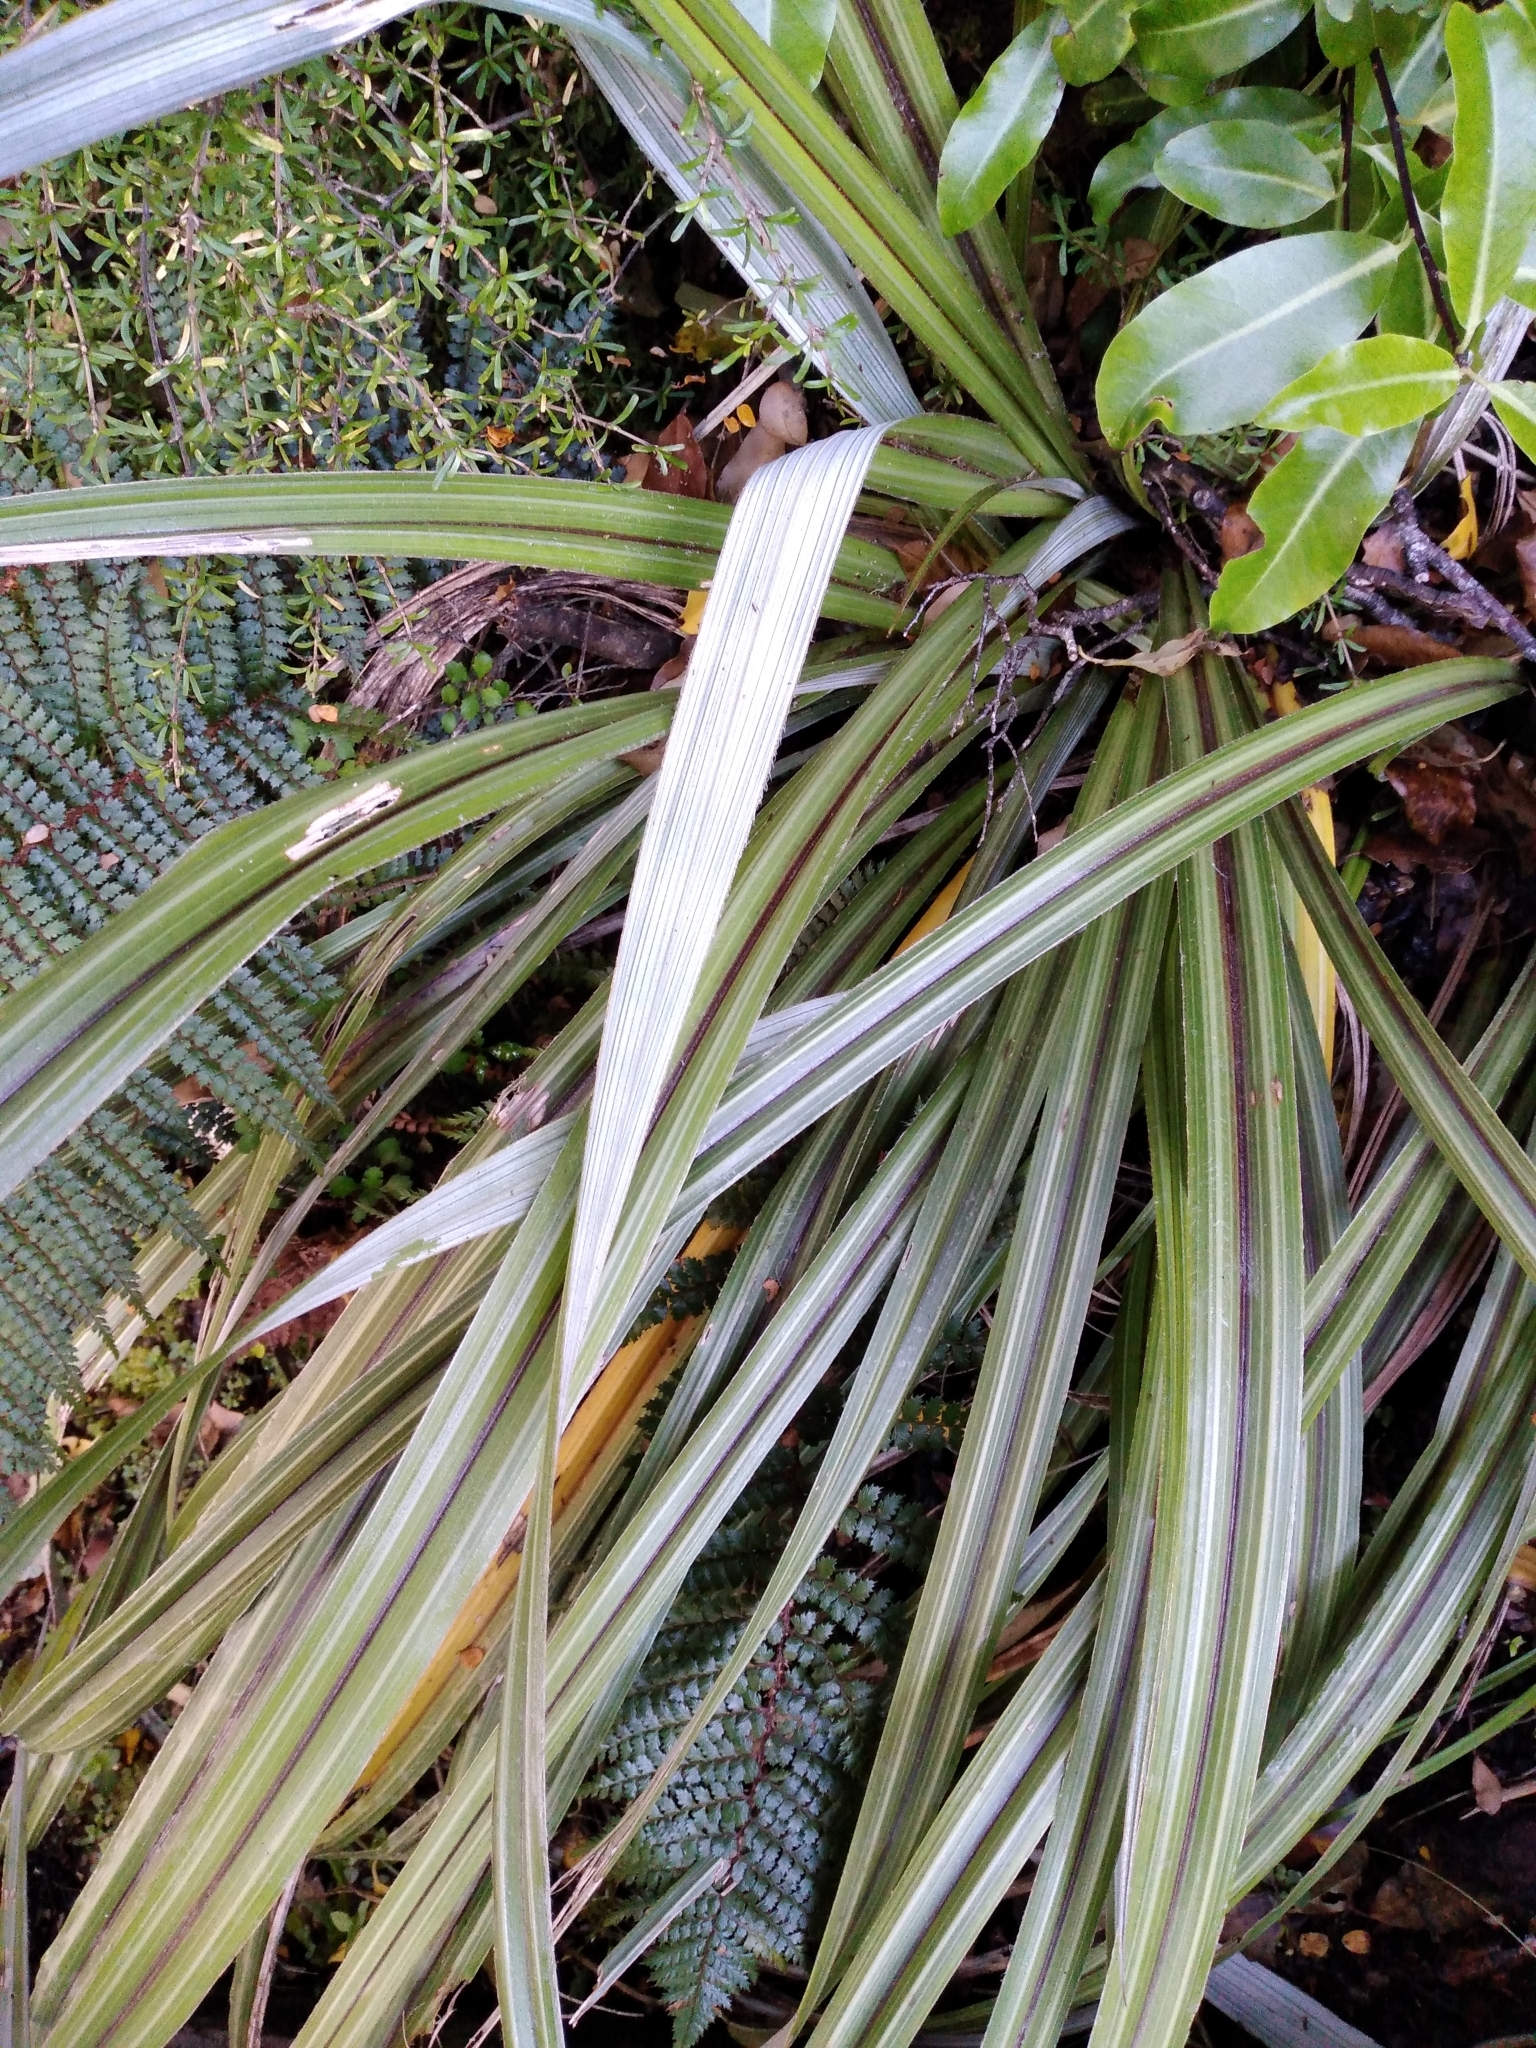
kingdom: Plantae
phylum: Tracheophyta
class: Liliopsida
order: Asparagales
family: Asteliaceae
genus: Astelia
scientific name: Astelia nervosa
